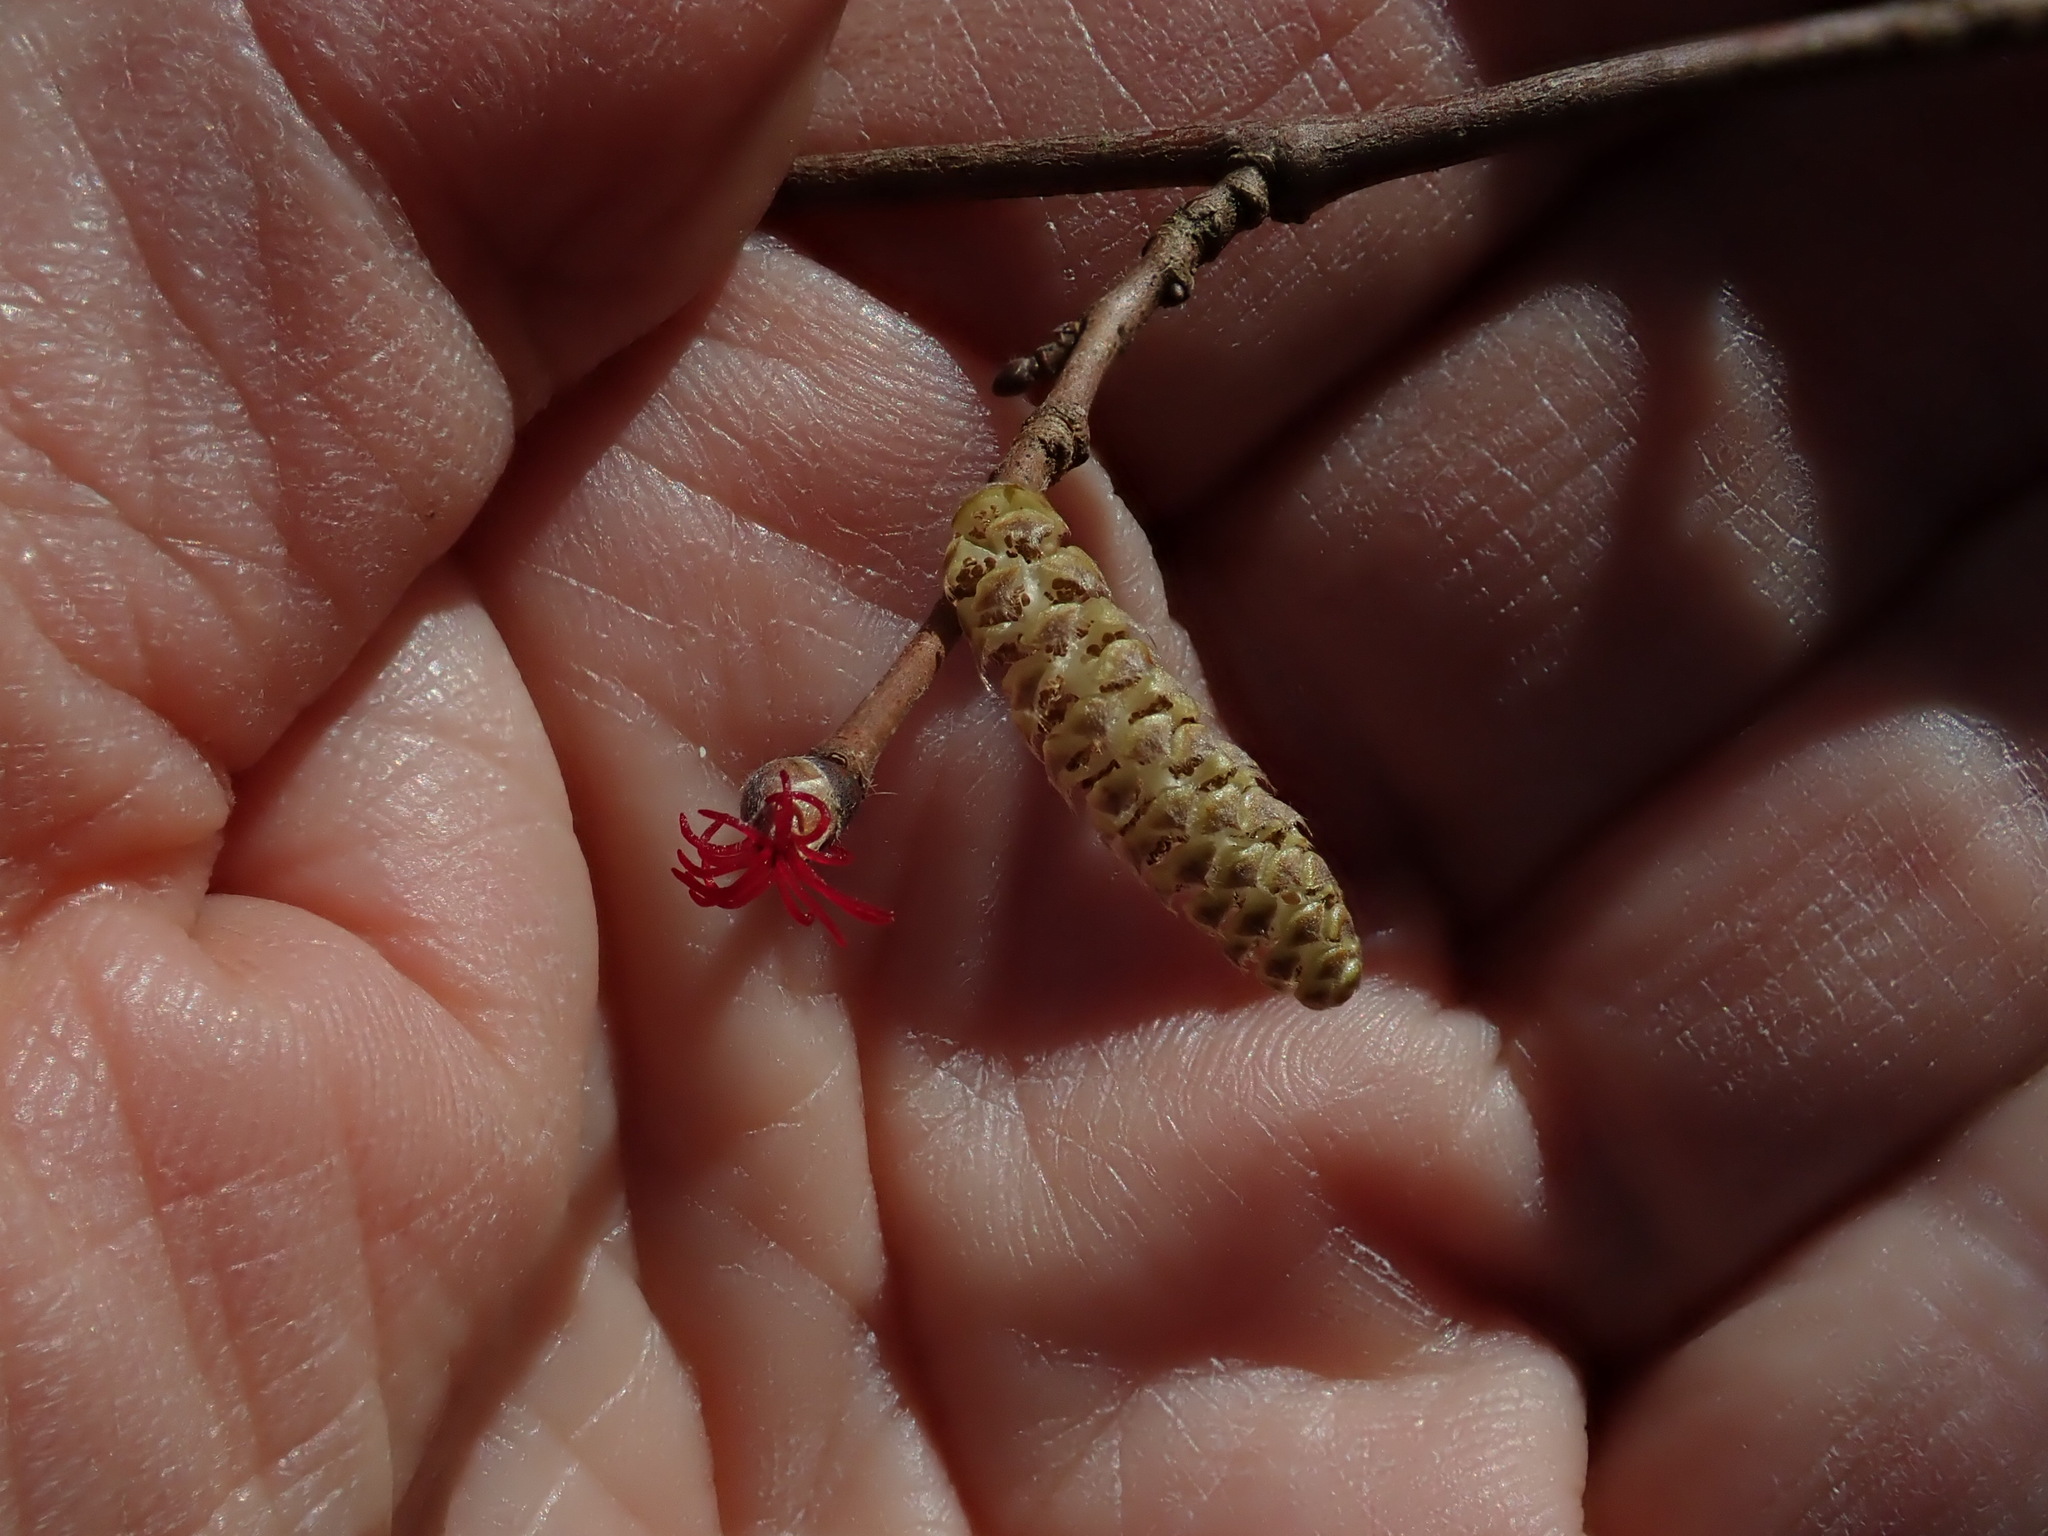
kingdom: Plantae
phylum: Tracheophyta
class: Magnoliopsida
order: Fagales
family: Betulaceae
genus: Corylus
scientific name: Corylus cornuta
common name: Beaked hazel
